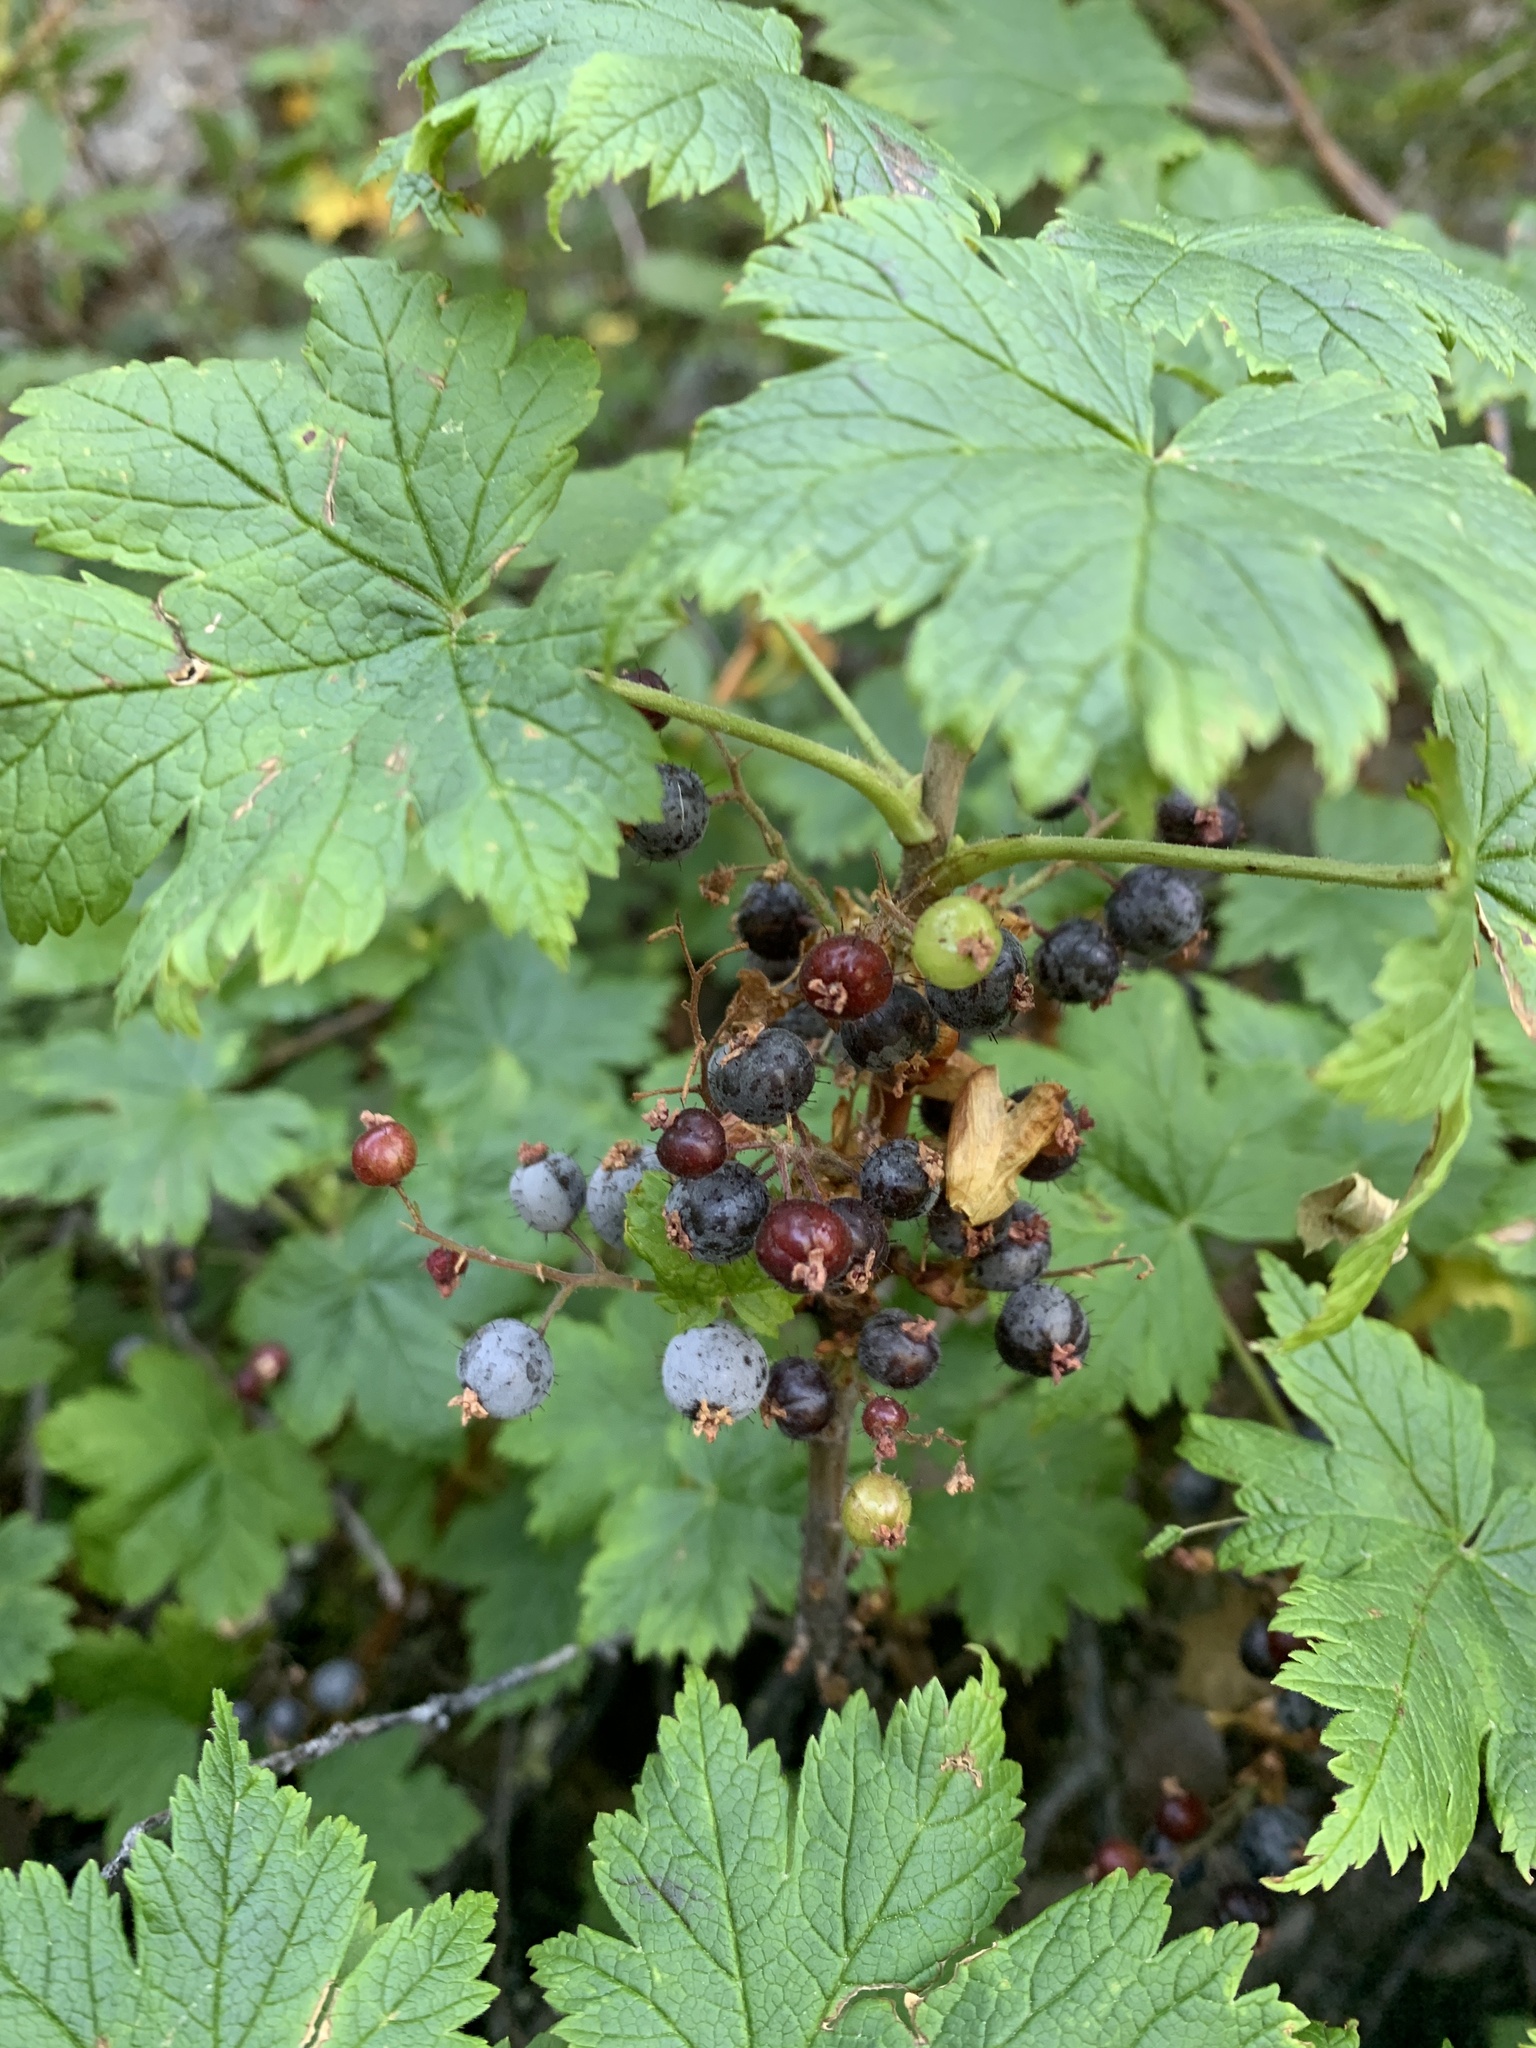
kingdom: Plantae
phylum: Tracheophyta
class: Magnoliopsida
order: Saxifragales
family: Grossulariaceae
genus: Ribes
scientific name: Ribes laxiflorum
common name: Spreading currant
